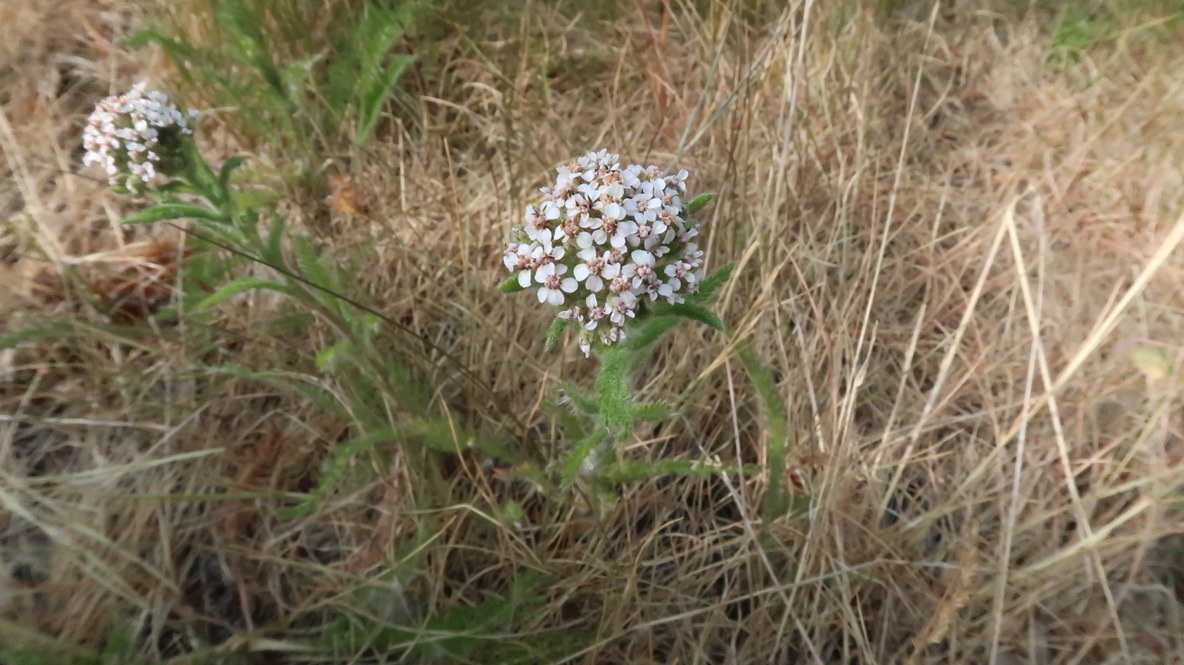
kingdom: Plantae
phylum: Tracheophyta
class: Magnoliopsida
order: Asterales
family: Asteraceae
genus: Achillea
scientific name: Achillea millefolium
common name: Yarrow
